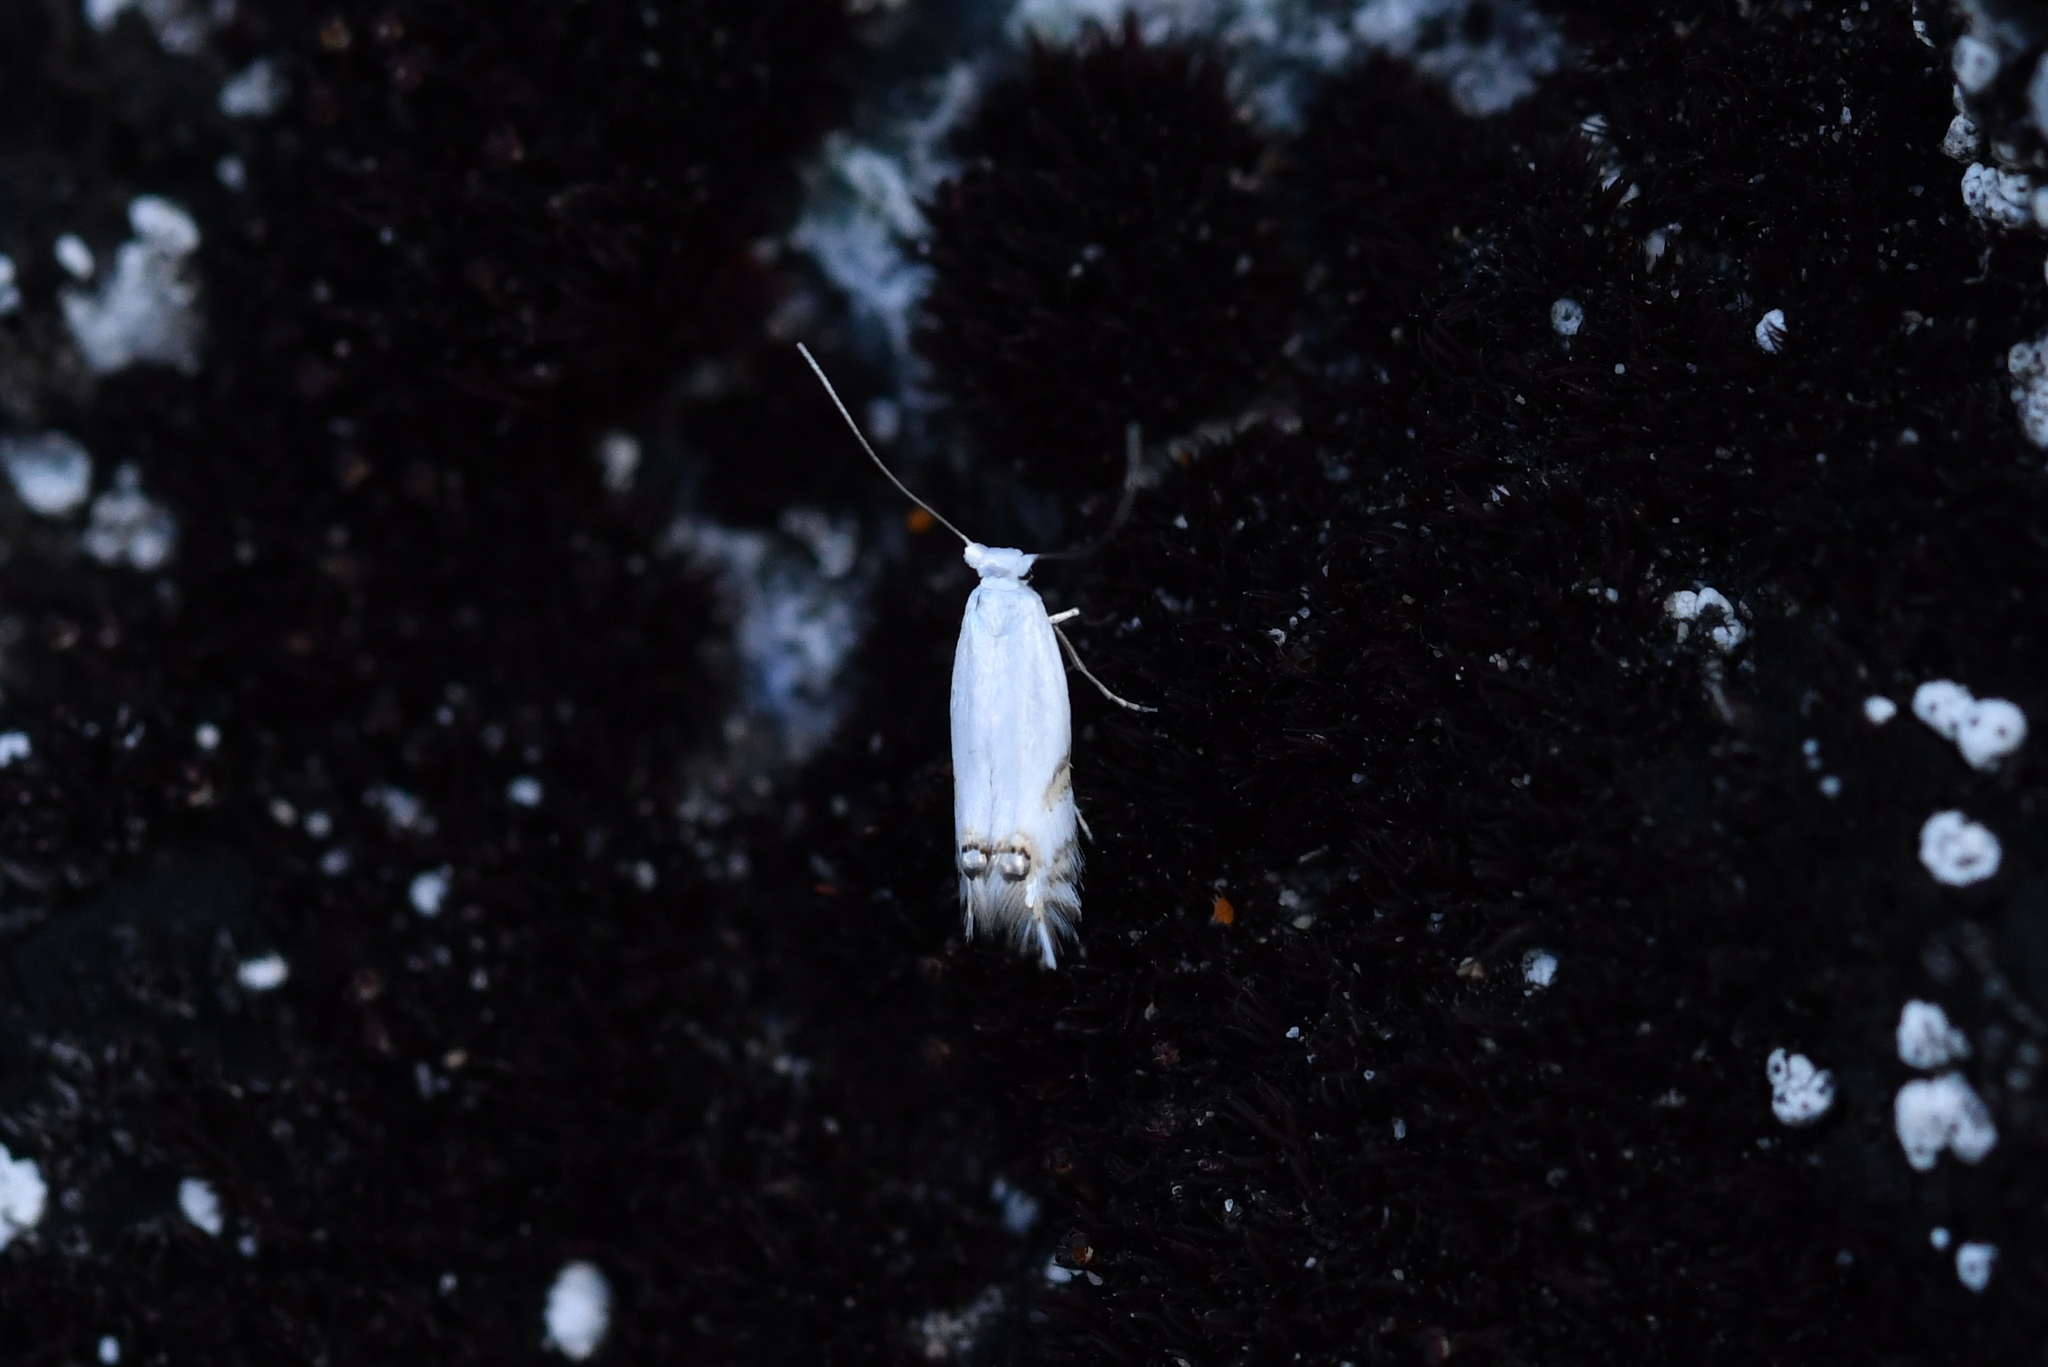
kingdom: Animalia
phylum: Arthropoda
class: Insecta
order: Lepidoptera
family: Lyonetiidae
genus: Leucoptera
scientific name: Leucoptera spartifoliella
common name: Scotch broom twig miner
